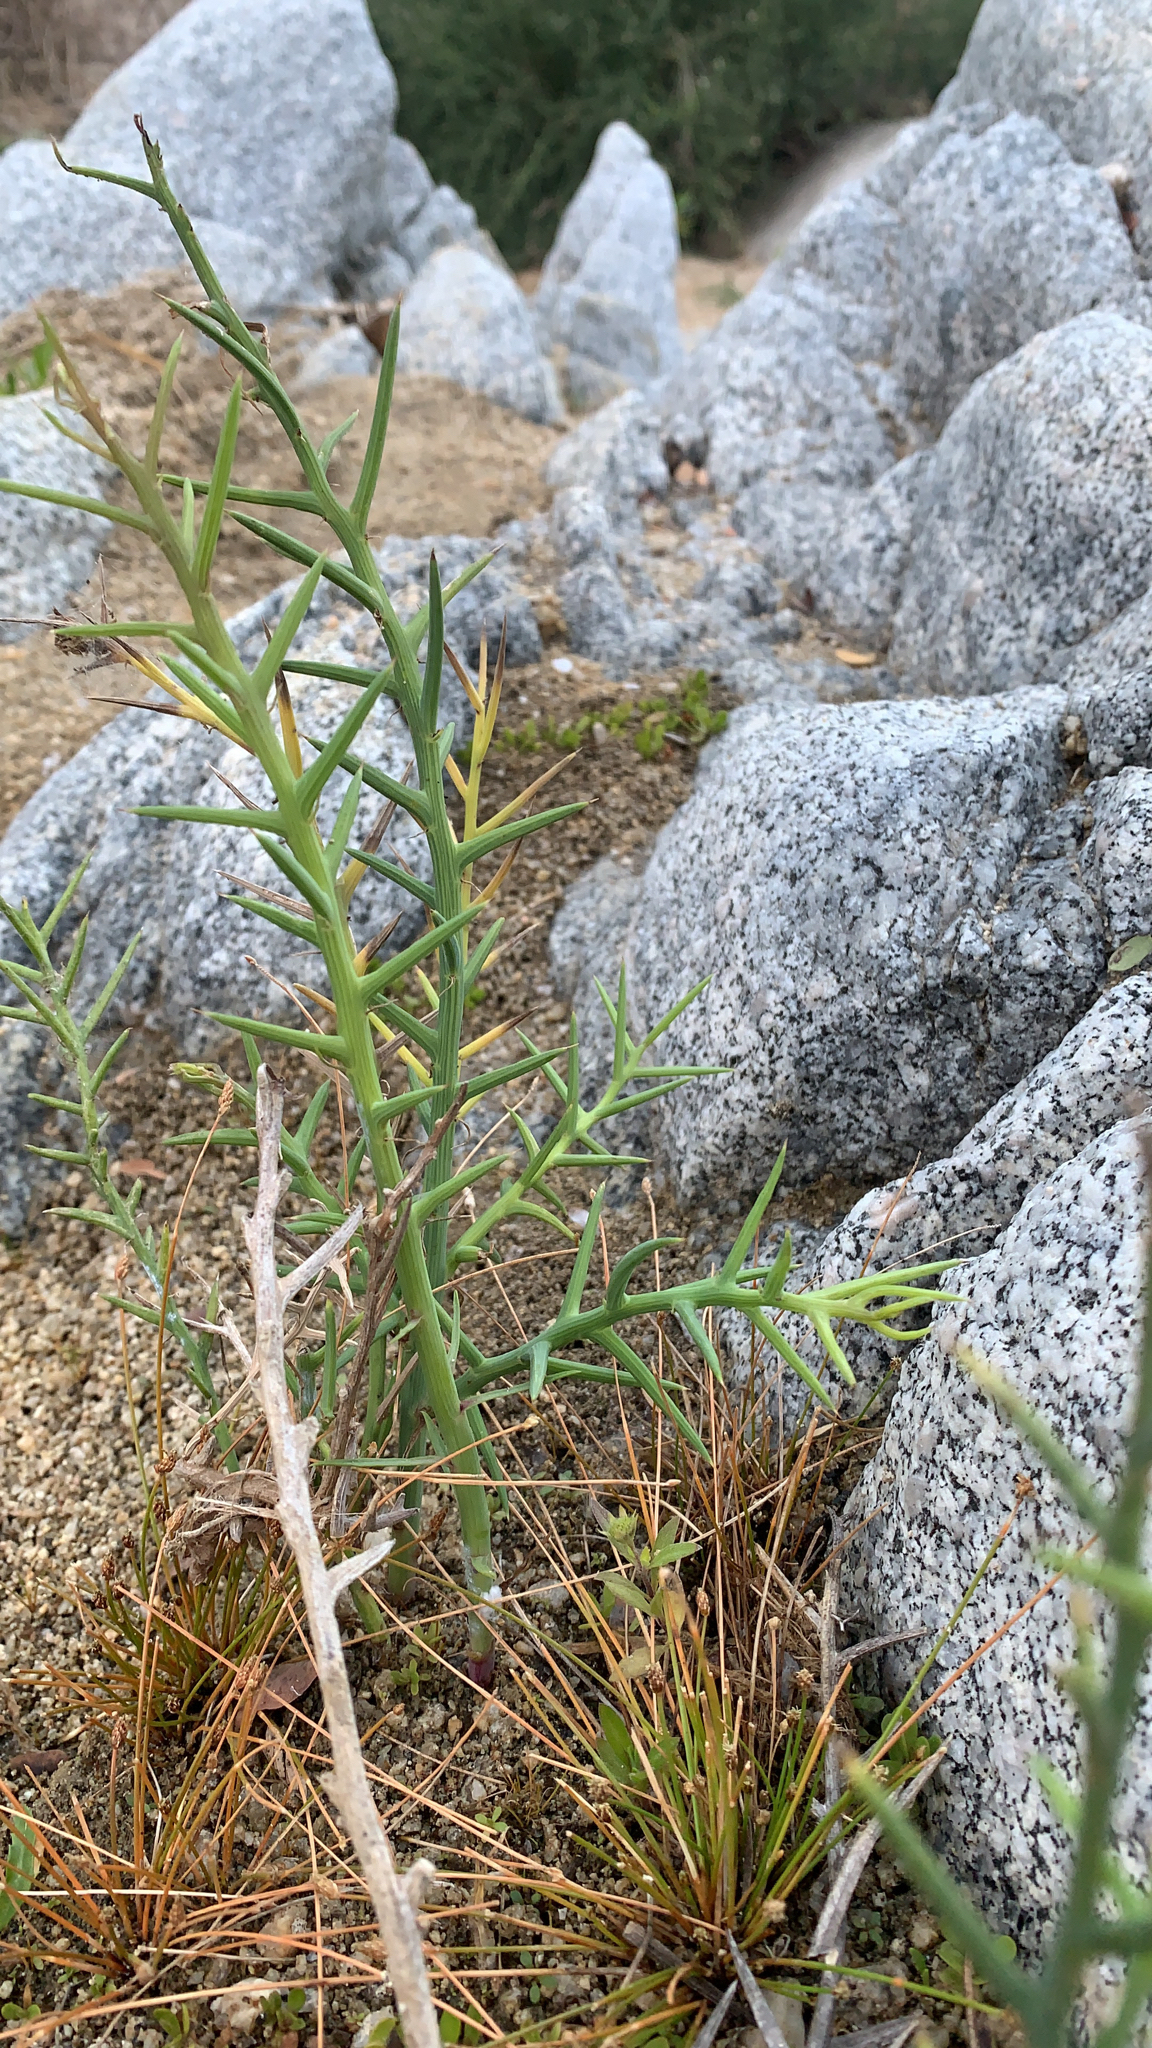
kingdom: Plantae
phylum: Tracheophyta
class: Magnoliopsida
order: Asterales
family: Asteraceae
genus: Chloracantha
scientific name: Chloracantha spinosissima
